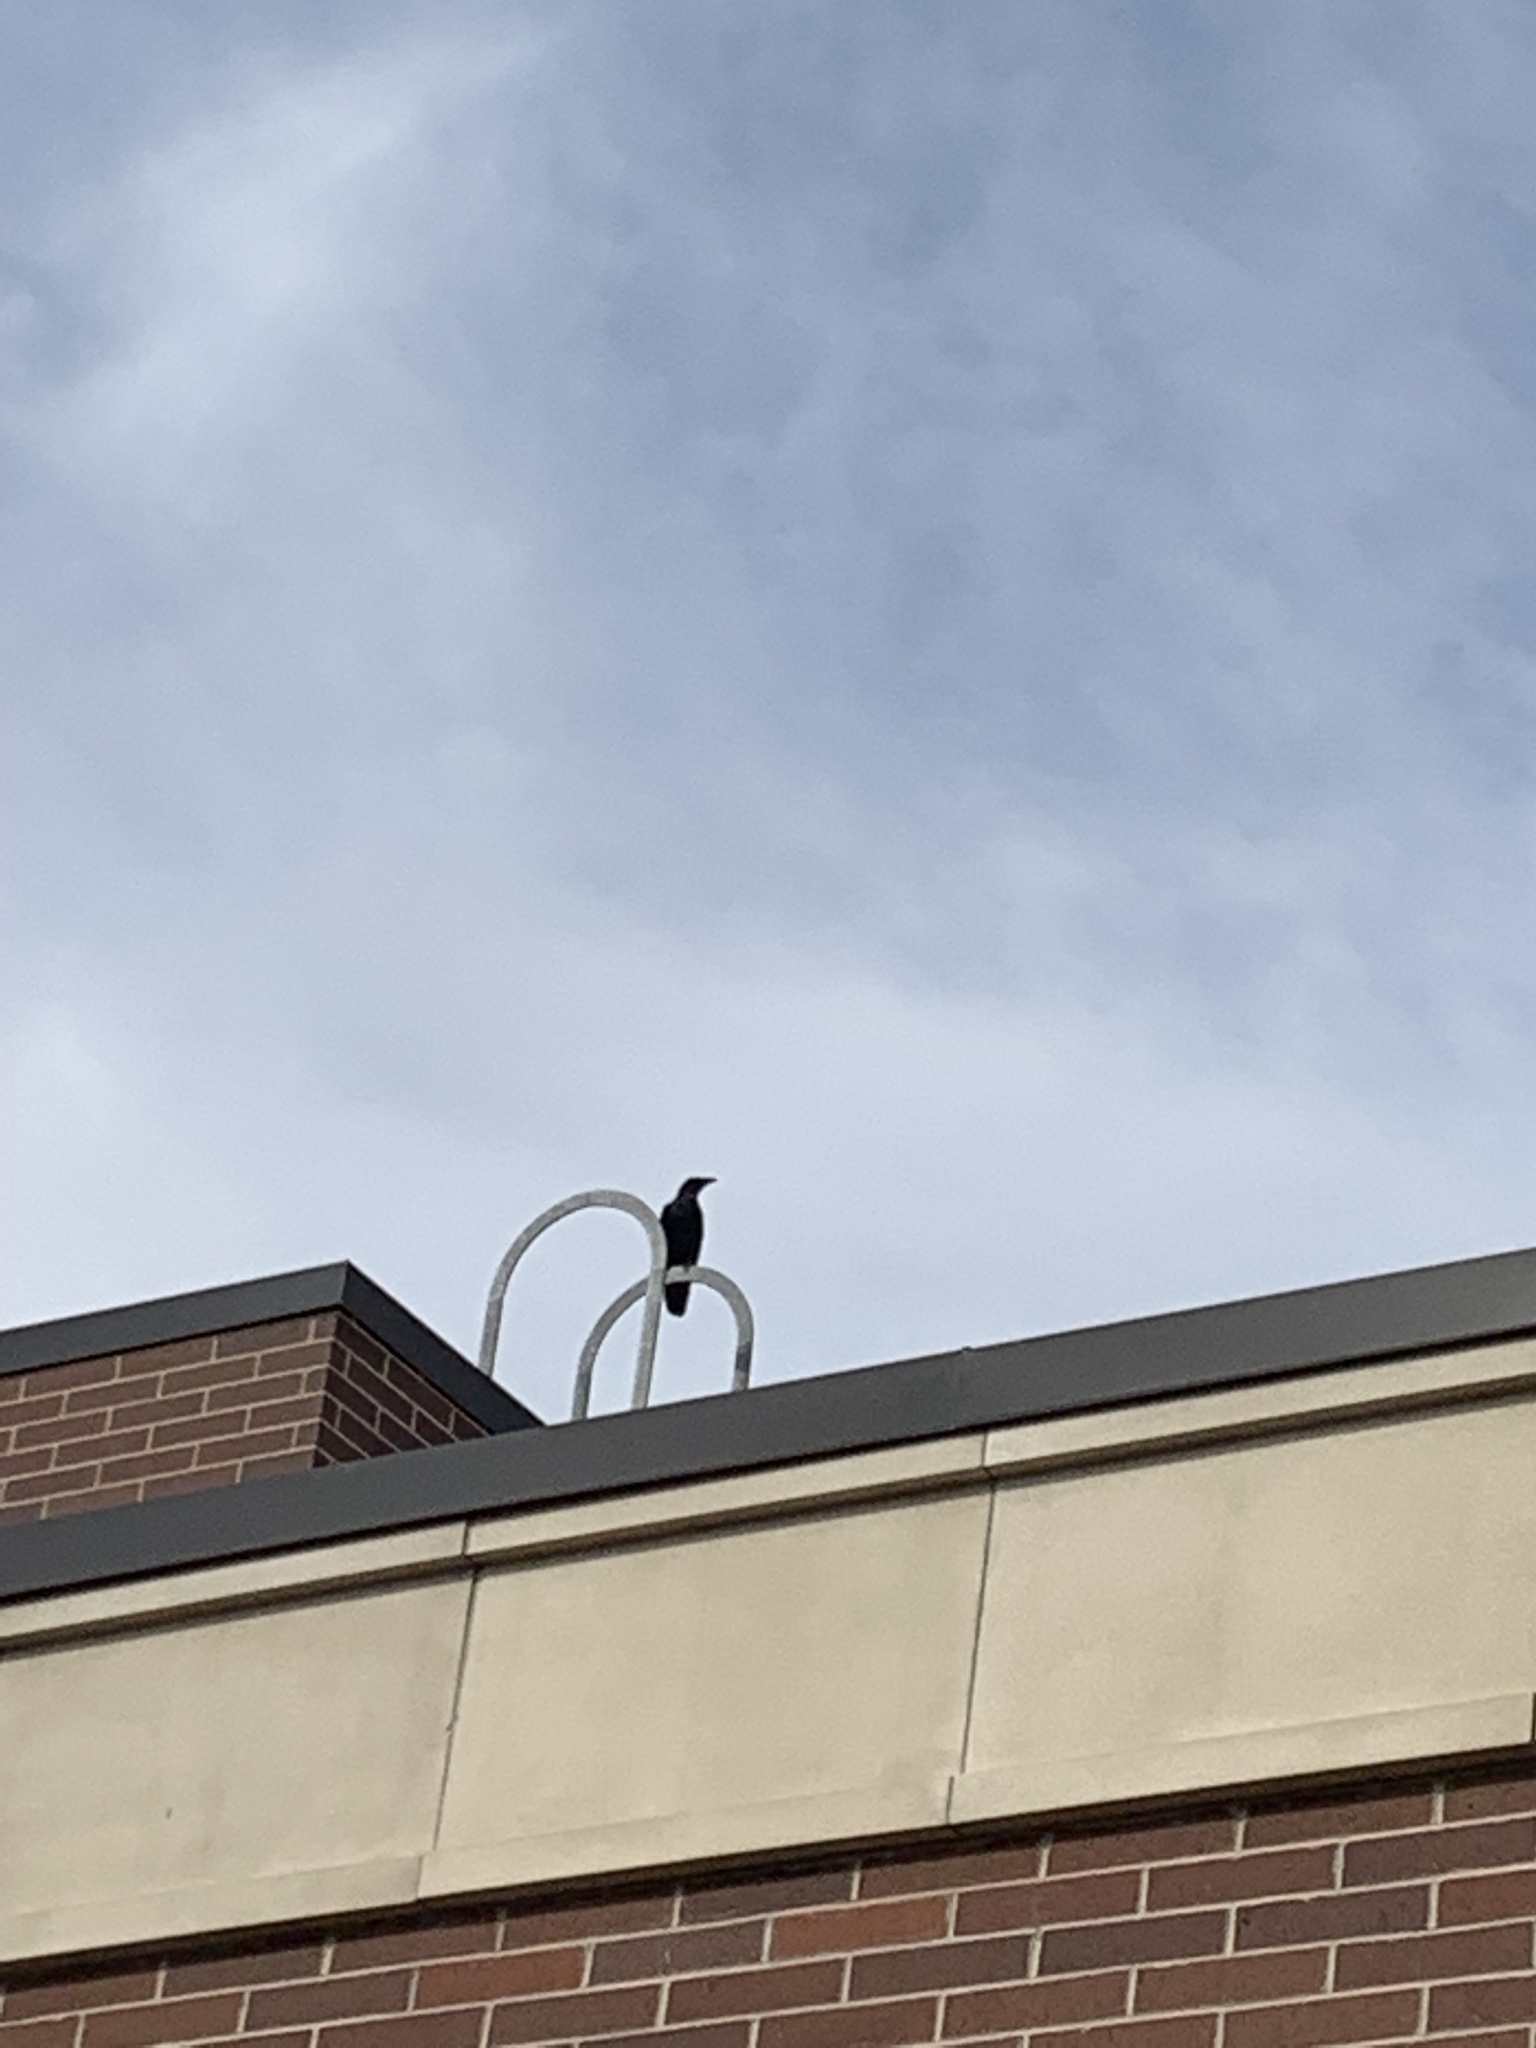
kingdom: Animalia
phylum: Chordata
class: Aves
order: Passeriformes
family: Corvidae
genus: Corvus
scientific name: Corvus corax
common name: Common raven
